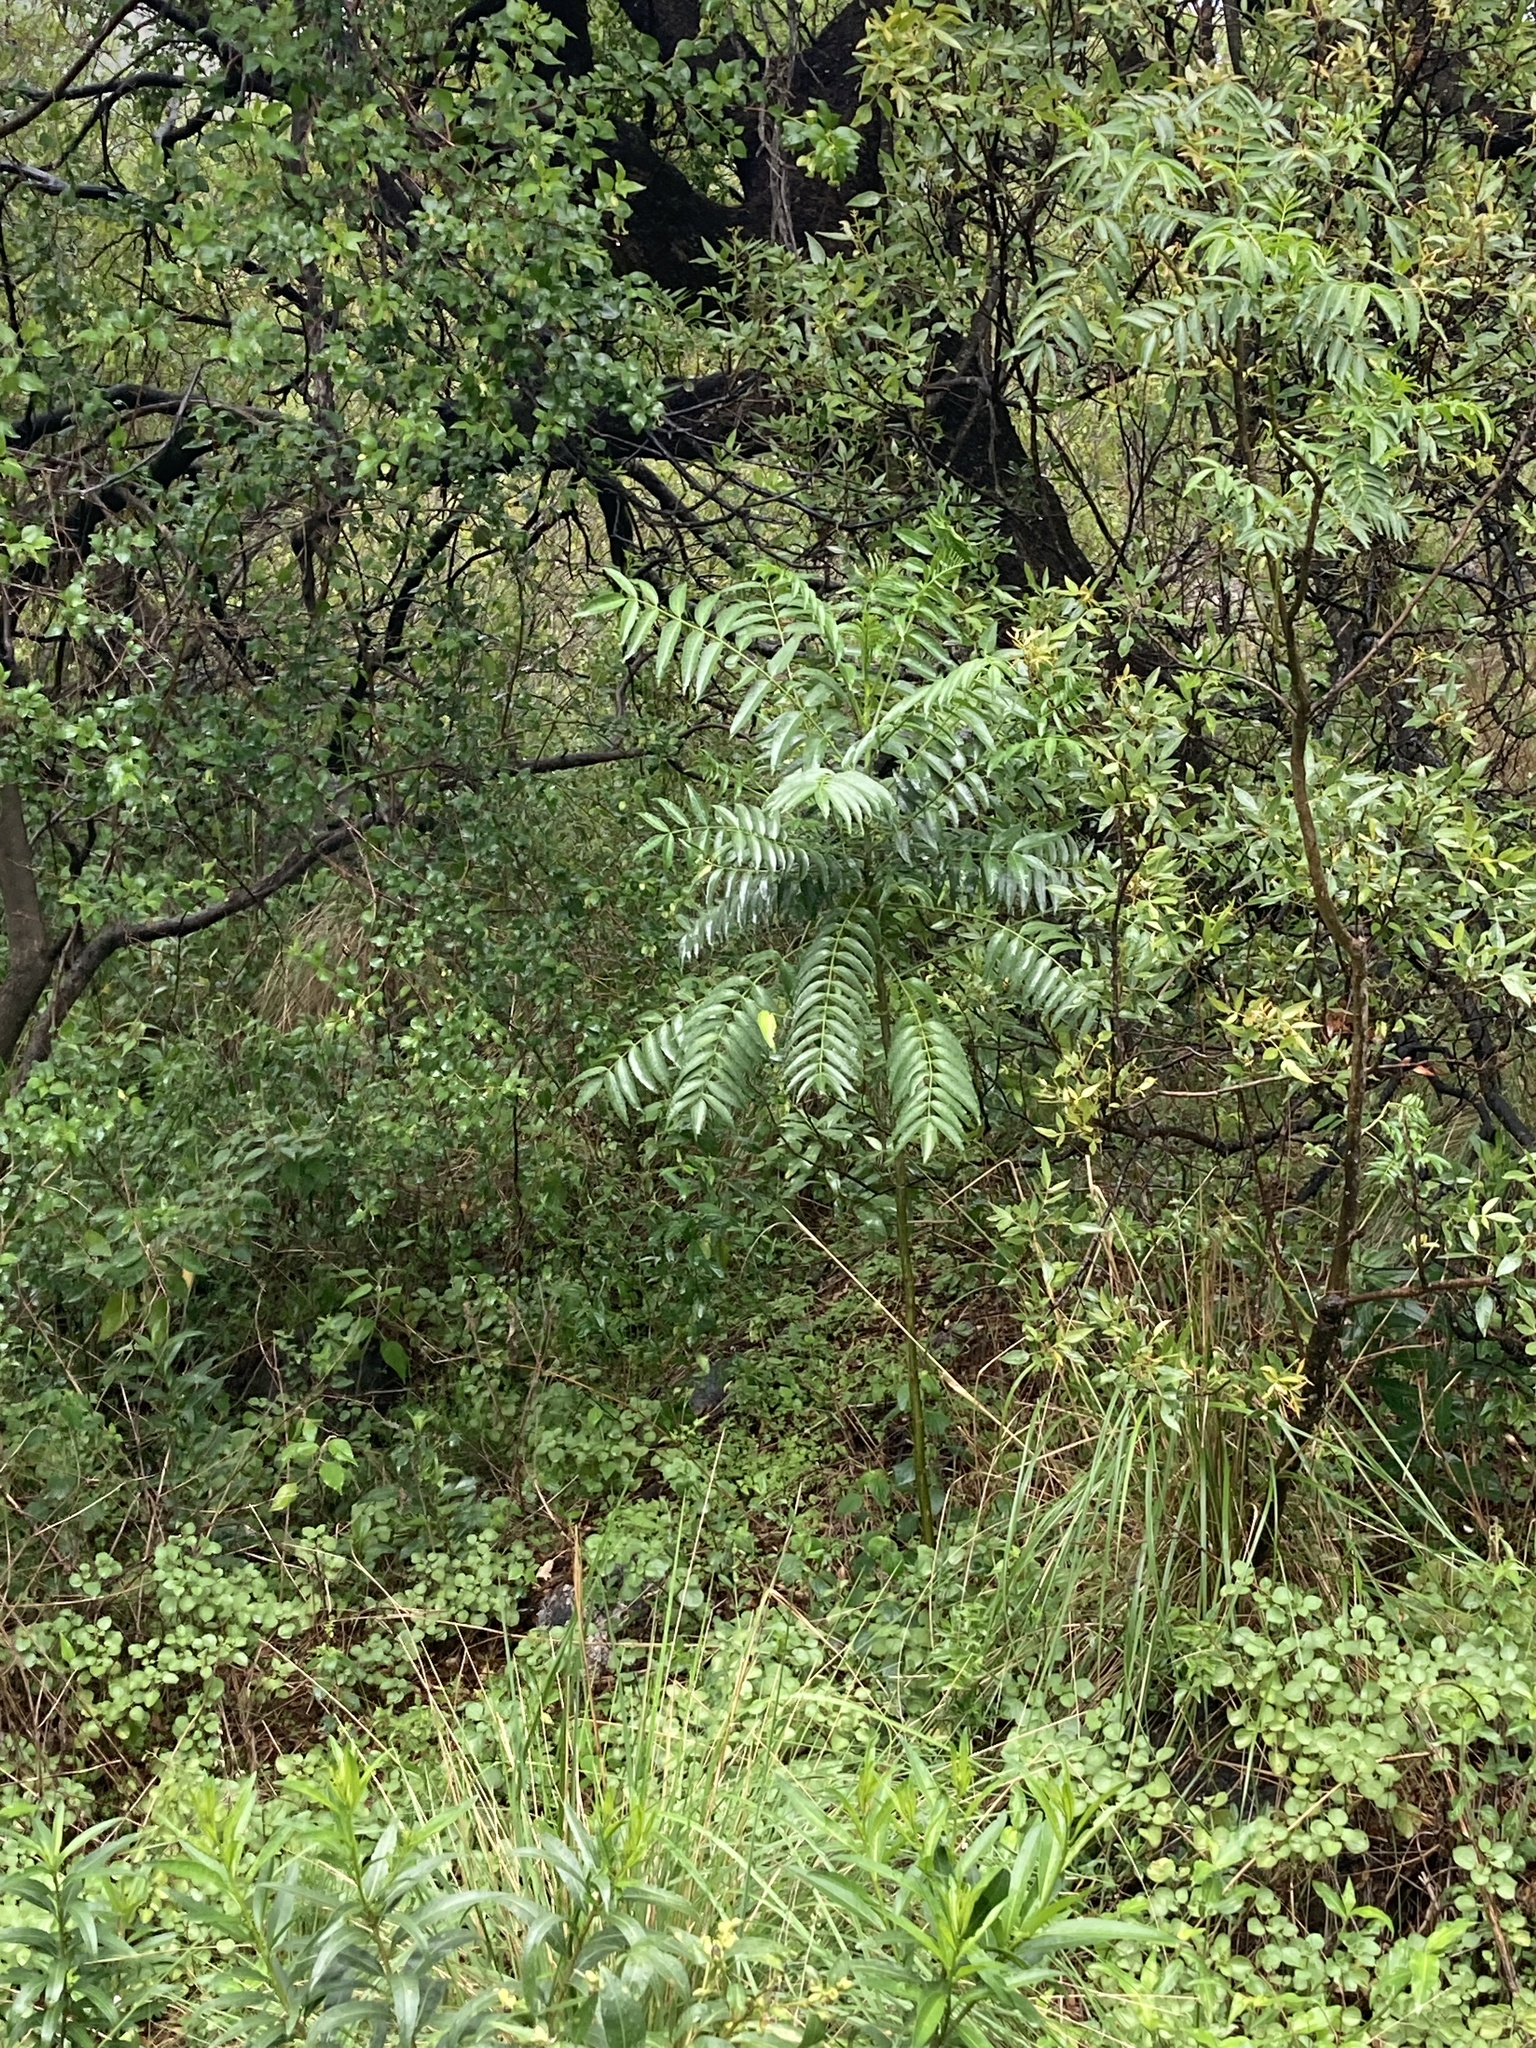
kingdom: Plantae
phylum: Tracheophyta
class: Magnoliopsida
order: Sapindales
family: Rutaceae
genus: Zanthoxylum
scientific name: Zanthoxylum coco
